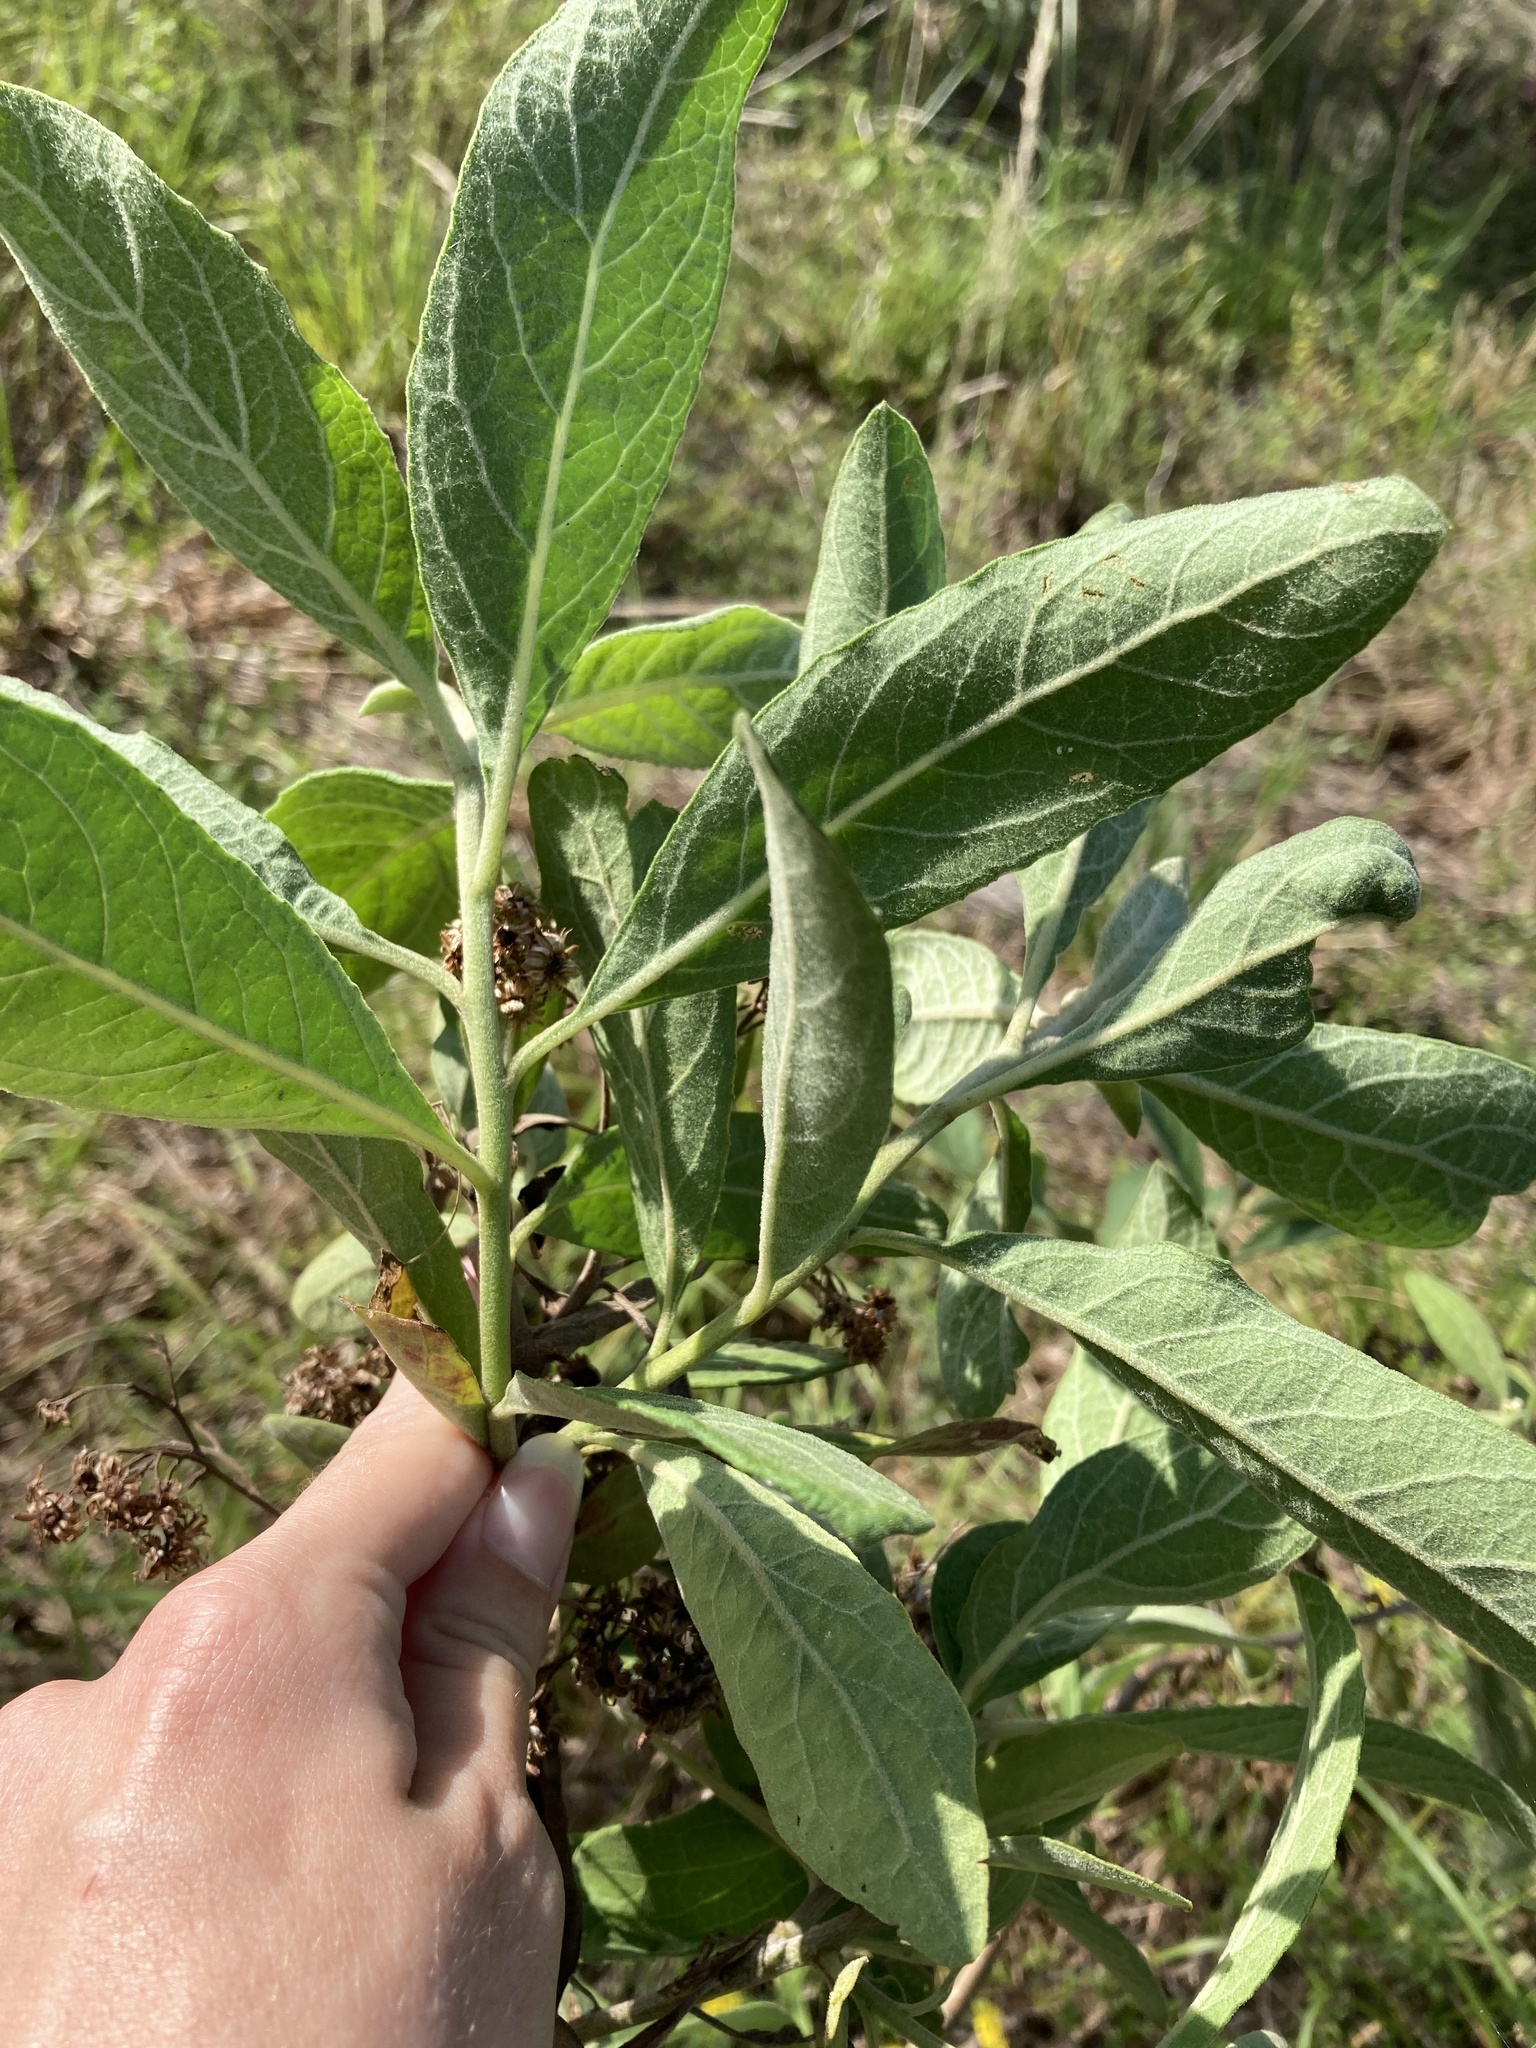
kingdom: Plantae
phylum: Tracheophyta
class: Magnoliopsida
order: Asterales
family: Asteraceae
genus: Pluchea
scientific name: Pluchea carolinensis
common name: Marsh fleabane
